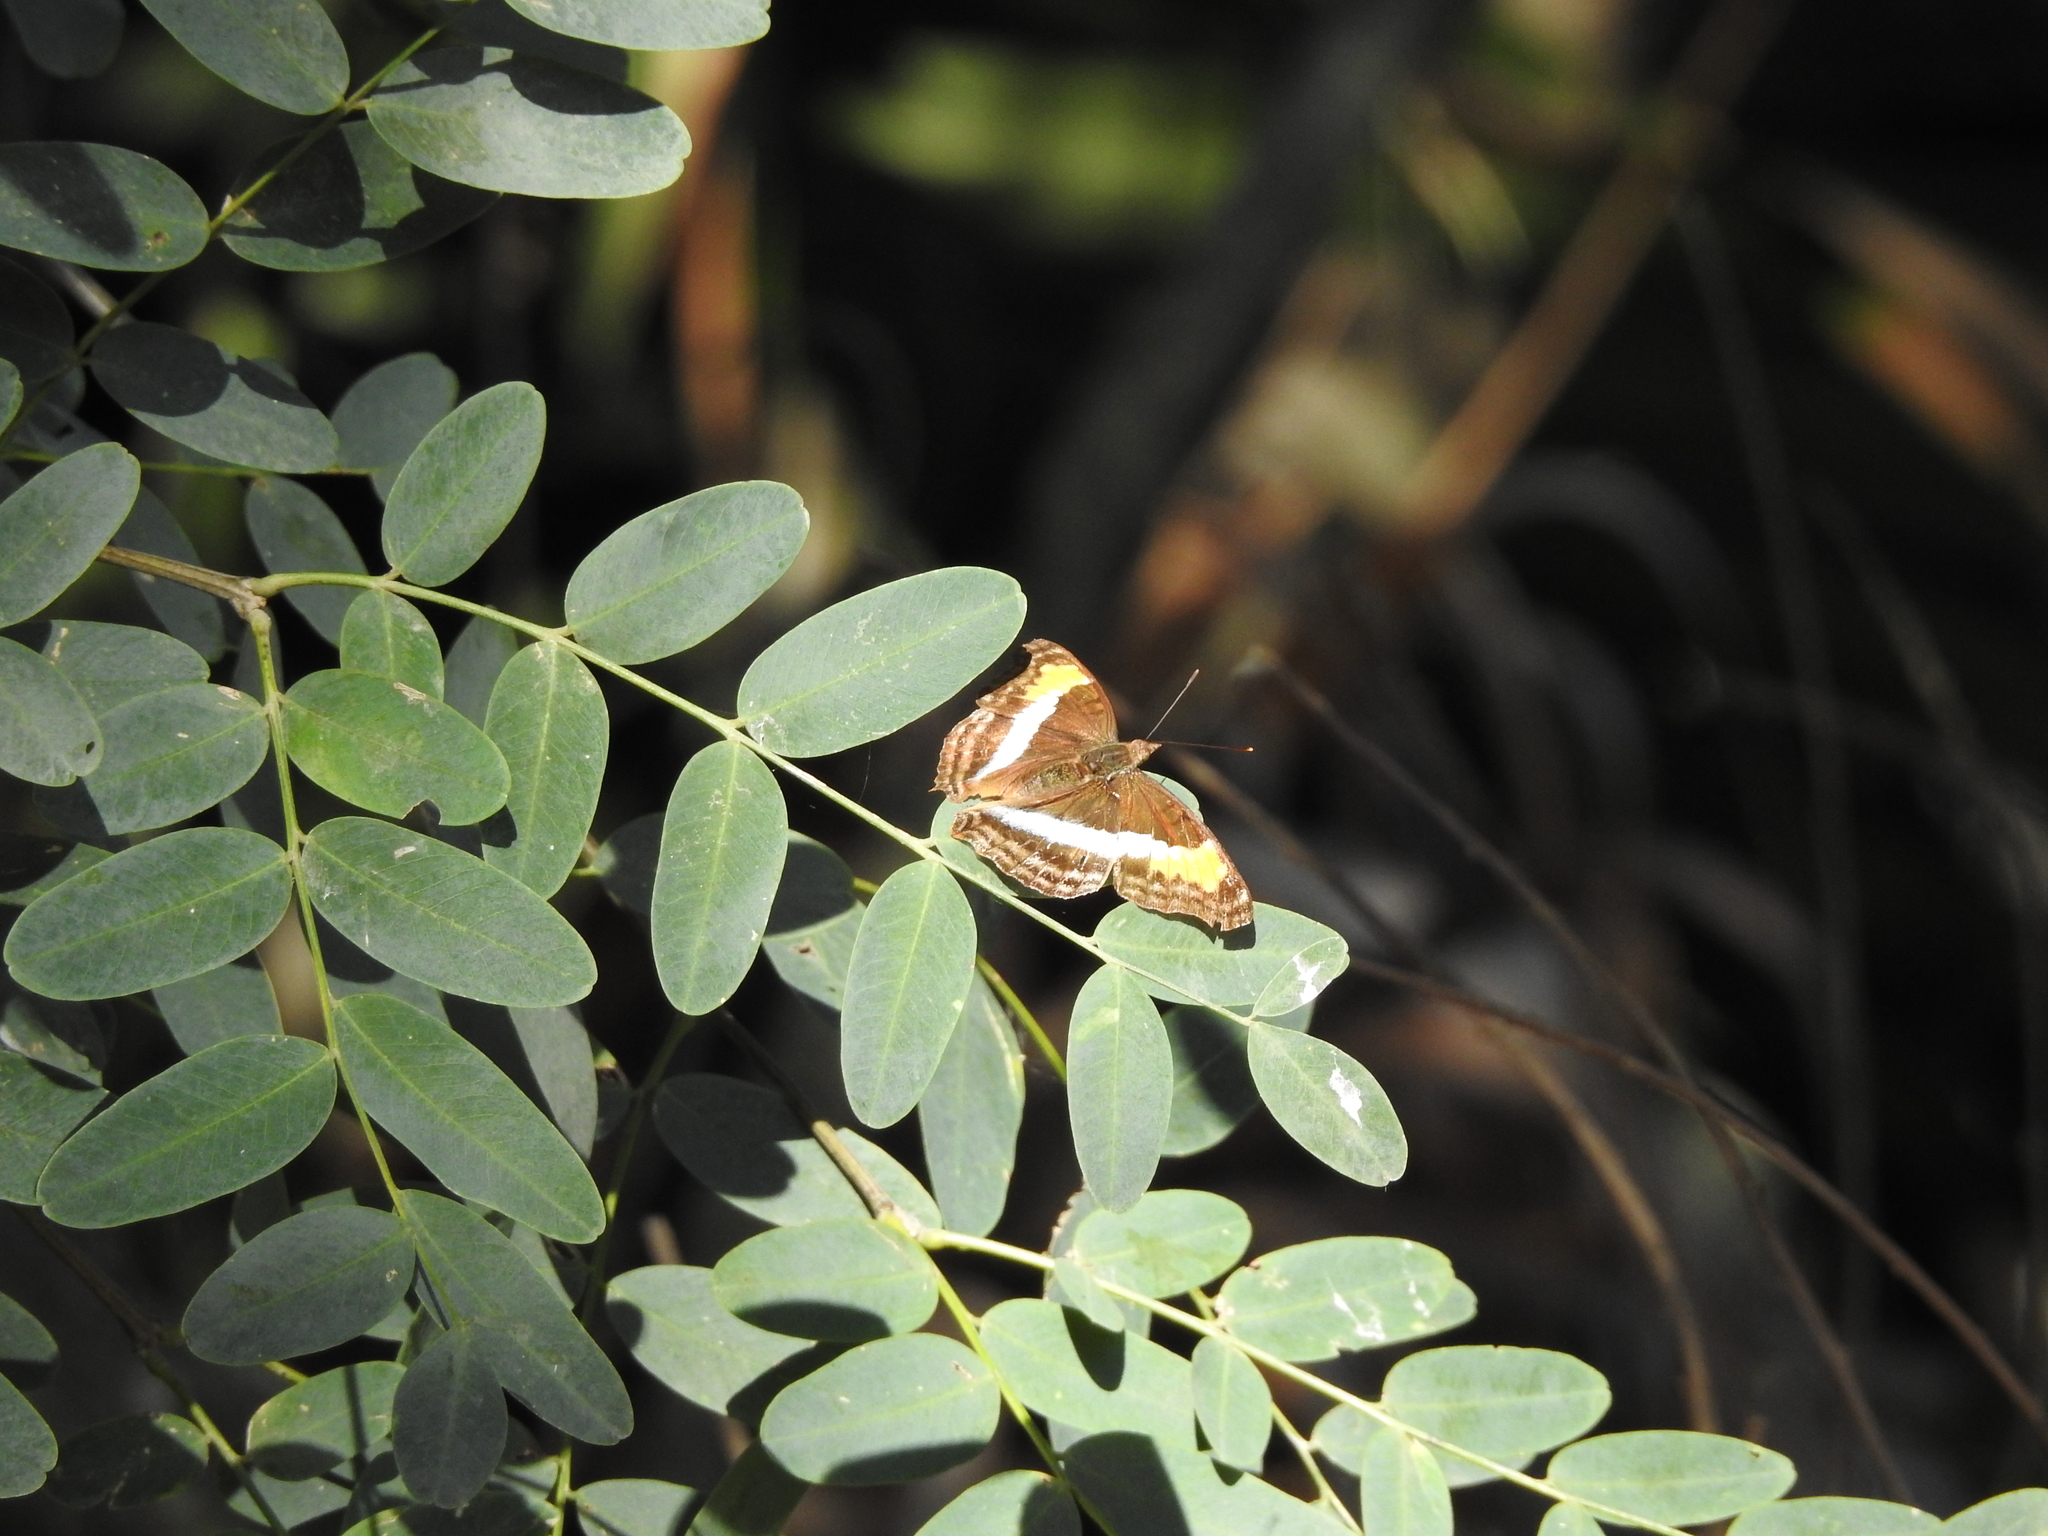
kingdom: Animalia
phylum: Arthropoda
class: Insecta
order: Lepidoptera
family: Nymphalidae
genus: Doxocopa
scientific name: Doxocopa laurentia
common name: Turquoise emperor
